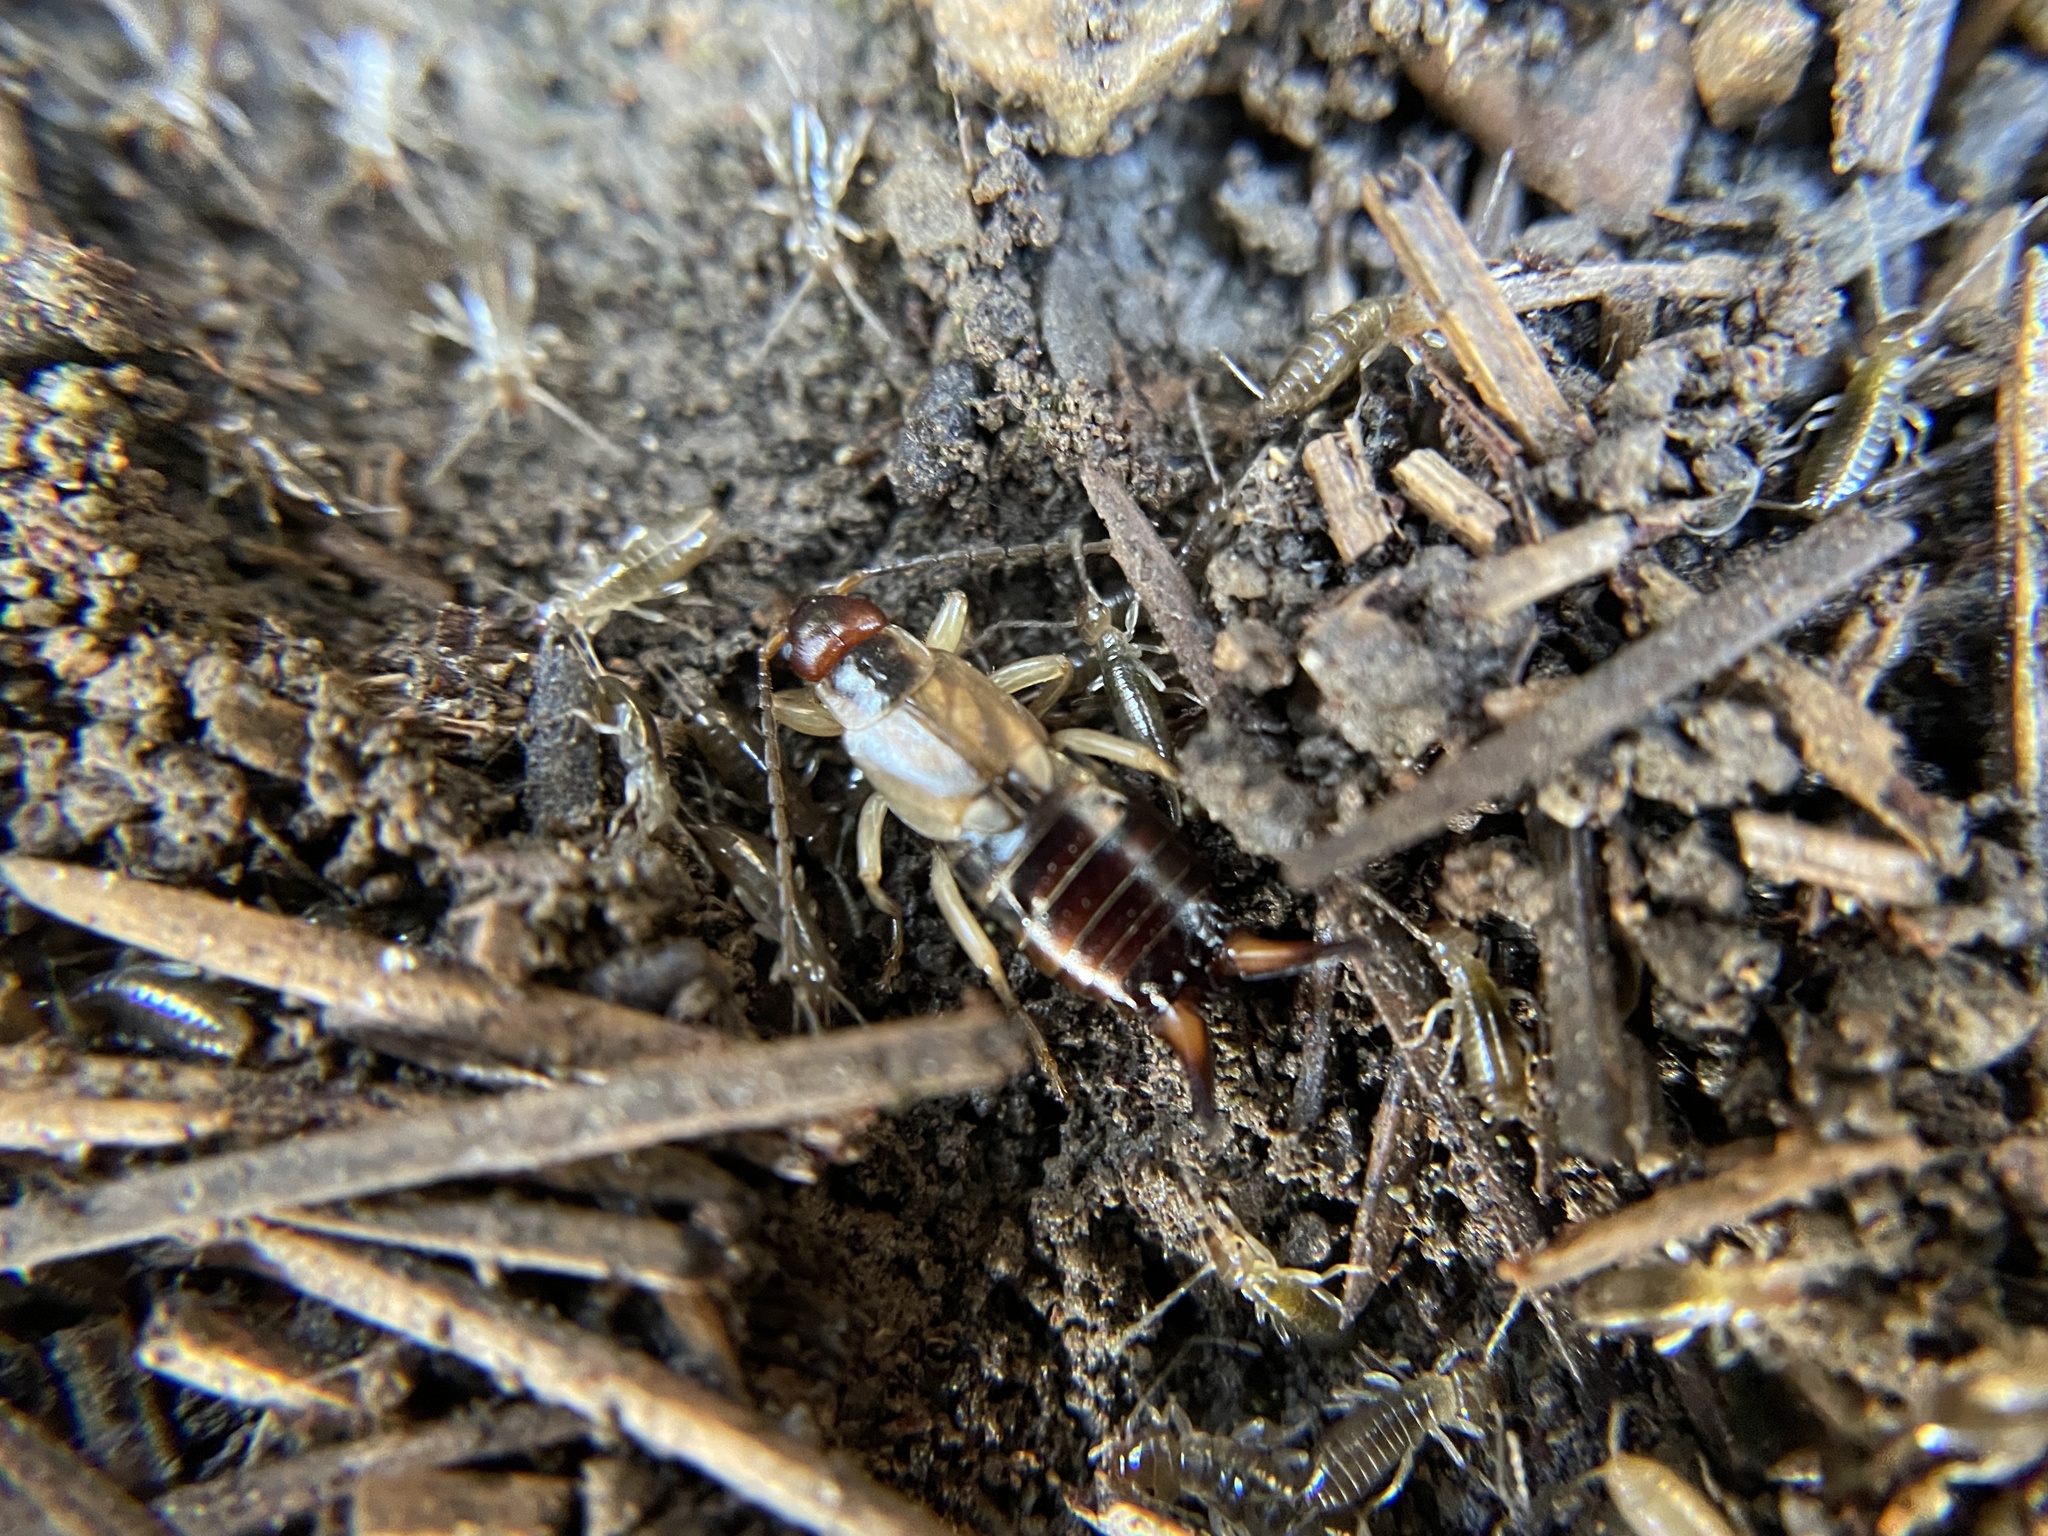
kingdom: Animalia
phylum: Arthropoda
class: Insecta
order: Dermaptera
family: Forficulidae
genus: Forficula
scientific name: Forficula
